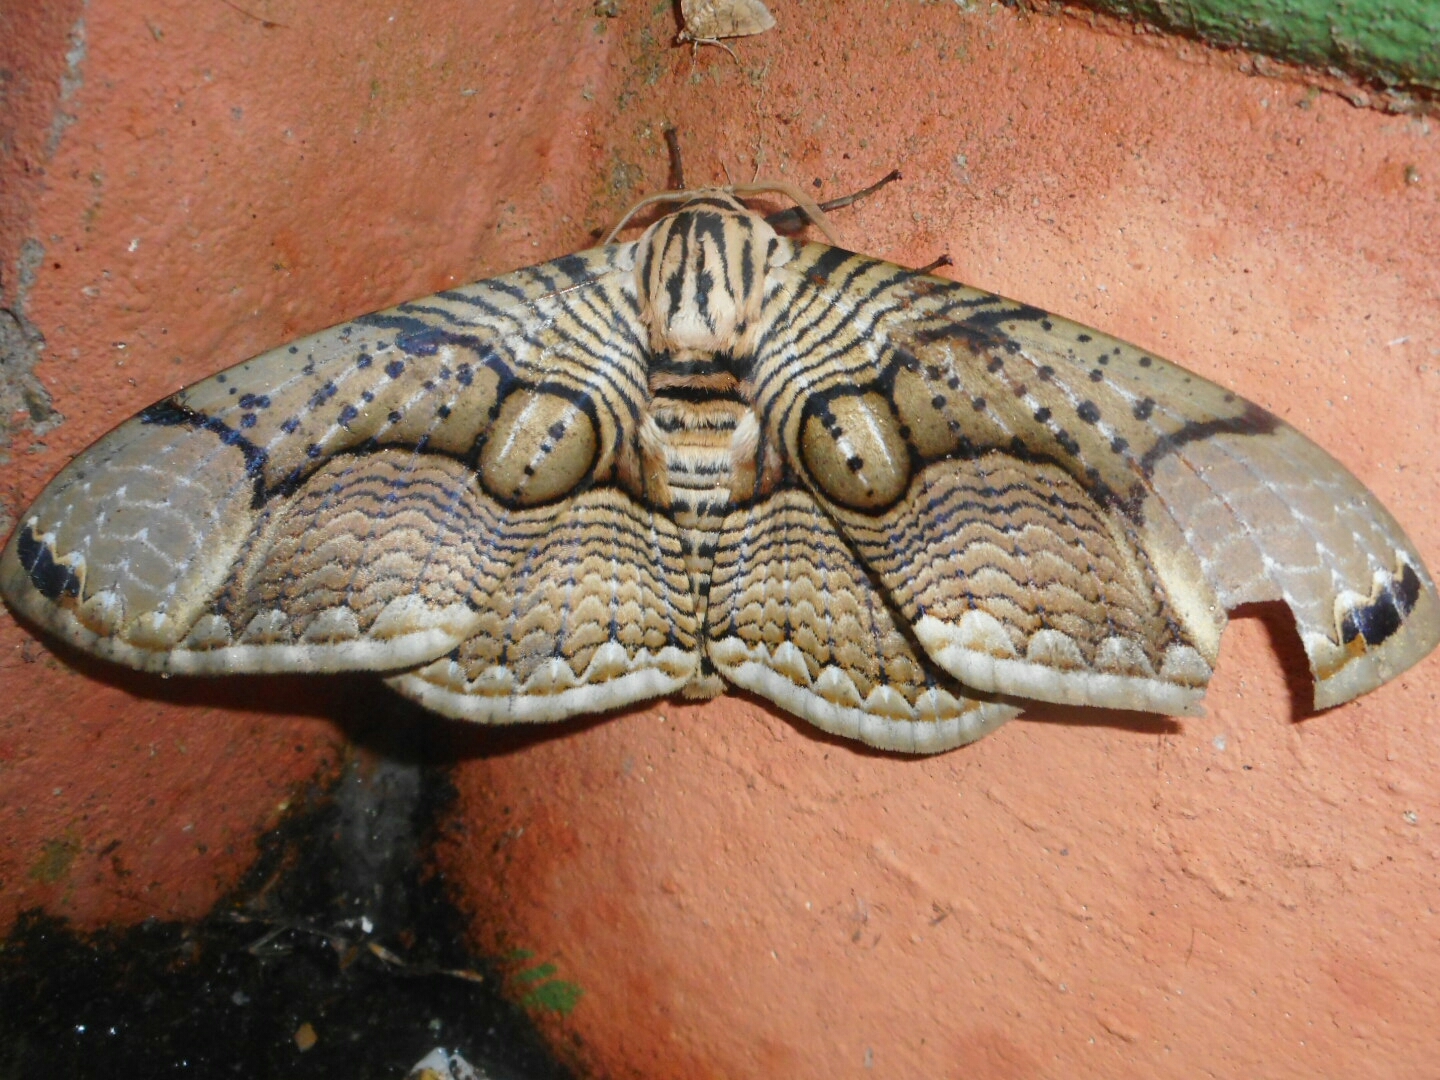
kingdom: Animalia
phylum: Arthropoda
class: Insecta
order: Lepidoptera
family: Brahmaeidae
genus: Brahmaea
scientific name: Brahmaea hearseyi
